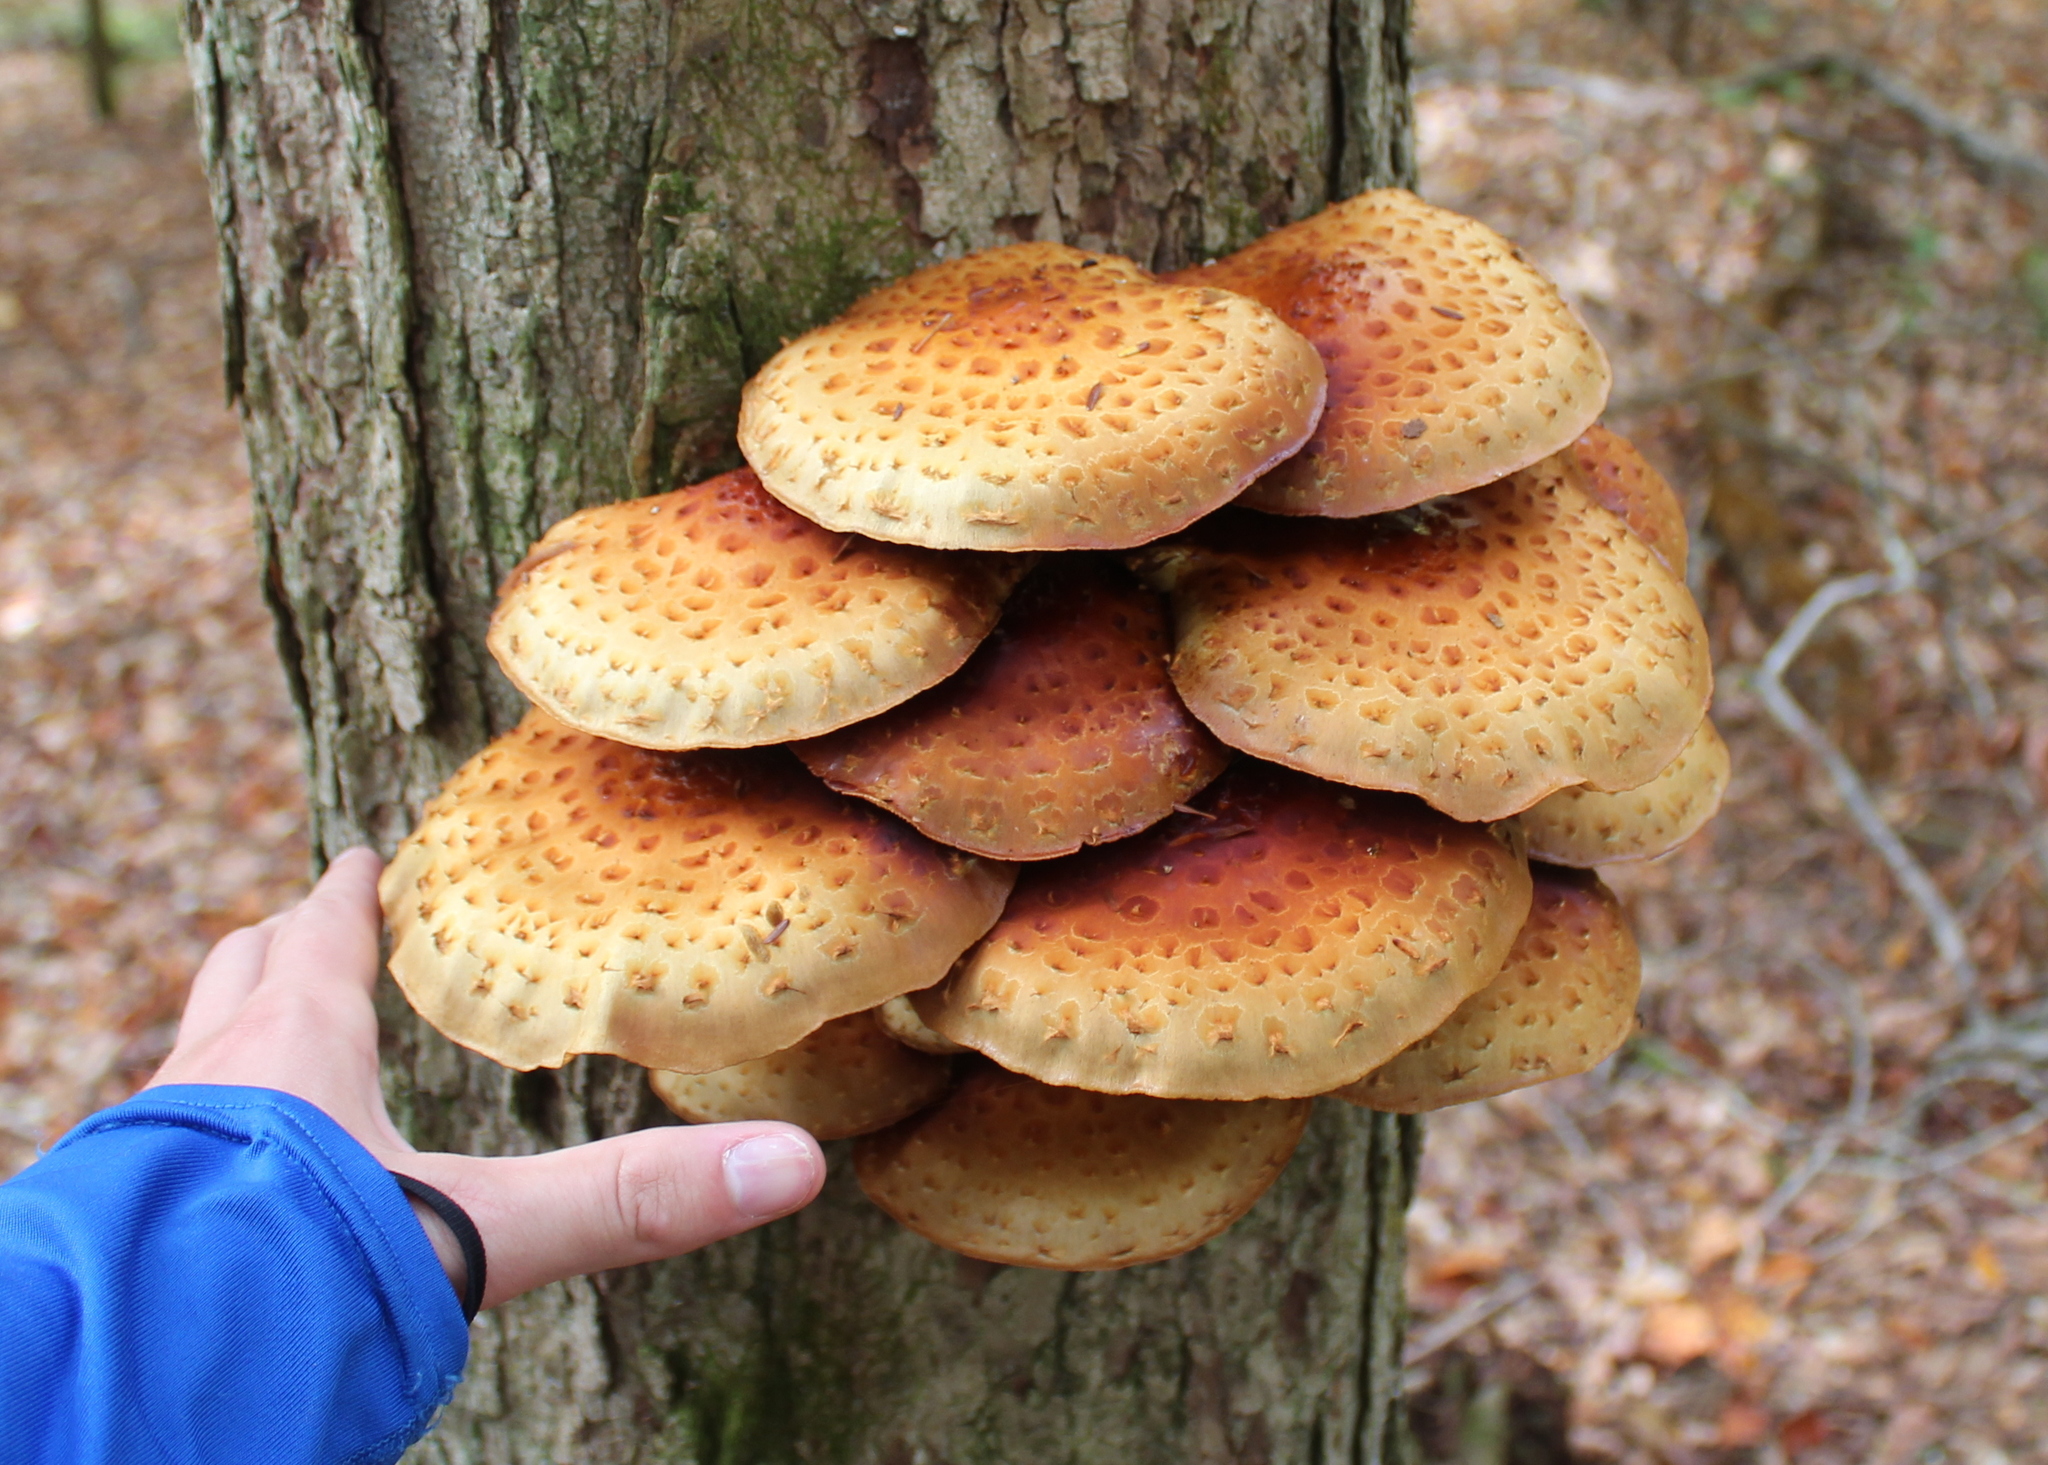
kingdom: Fungi
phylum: Basidiomycota
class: Agaricomycetes
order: Agaricales
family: Strophariaceae
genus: Pholiota
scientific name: Pholiota aurivella
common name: Golden scalycap
